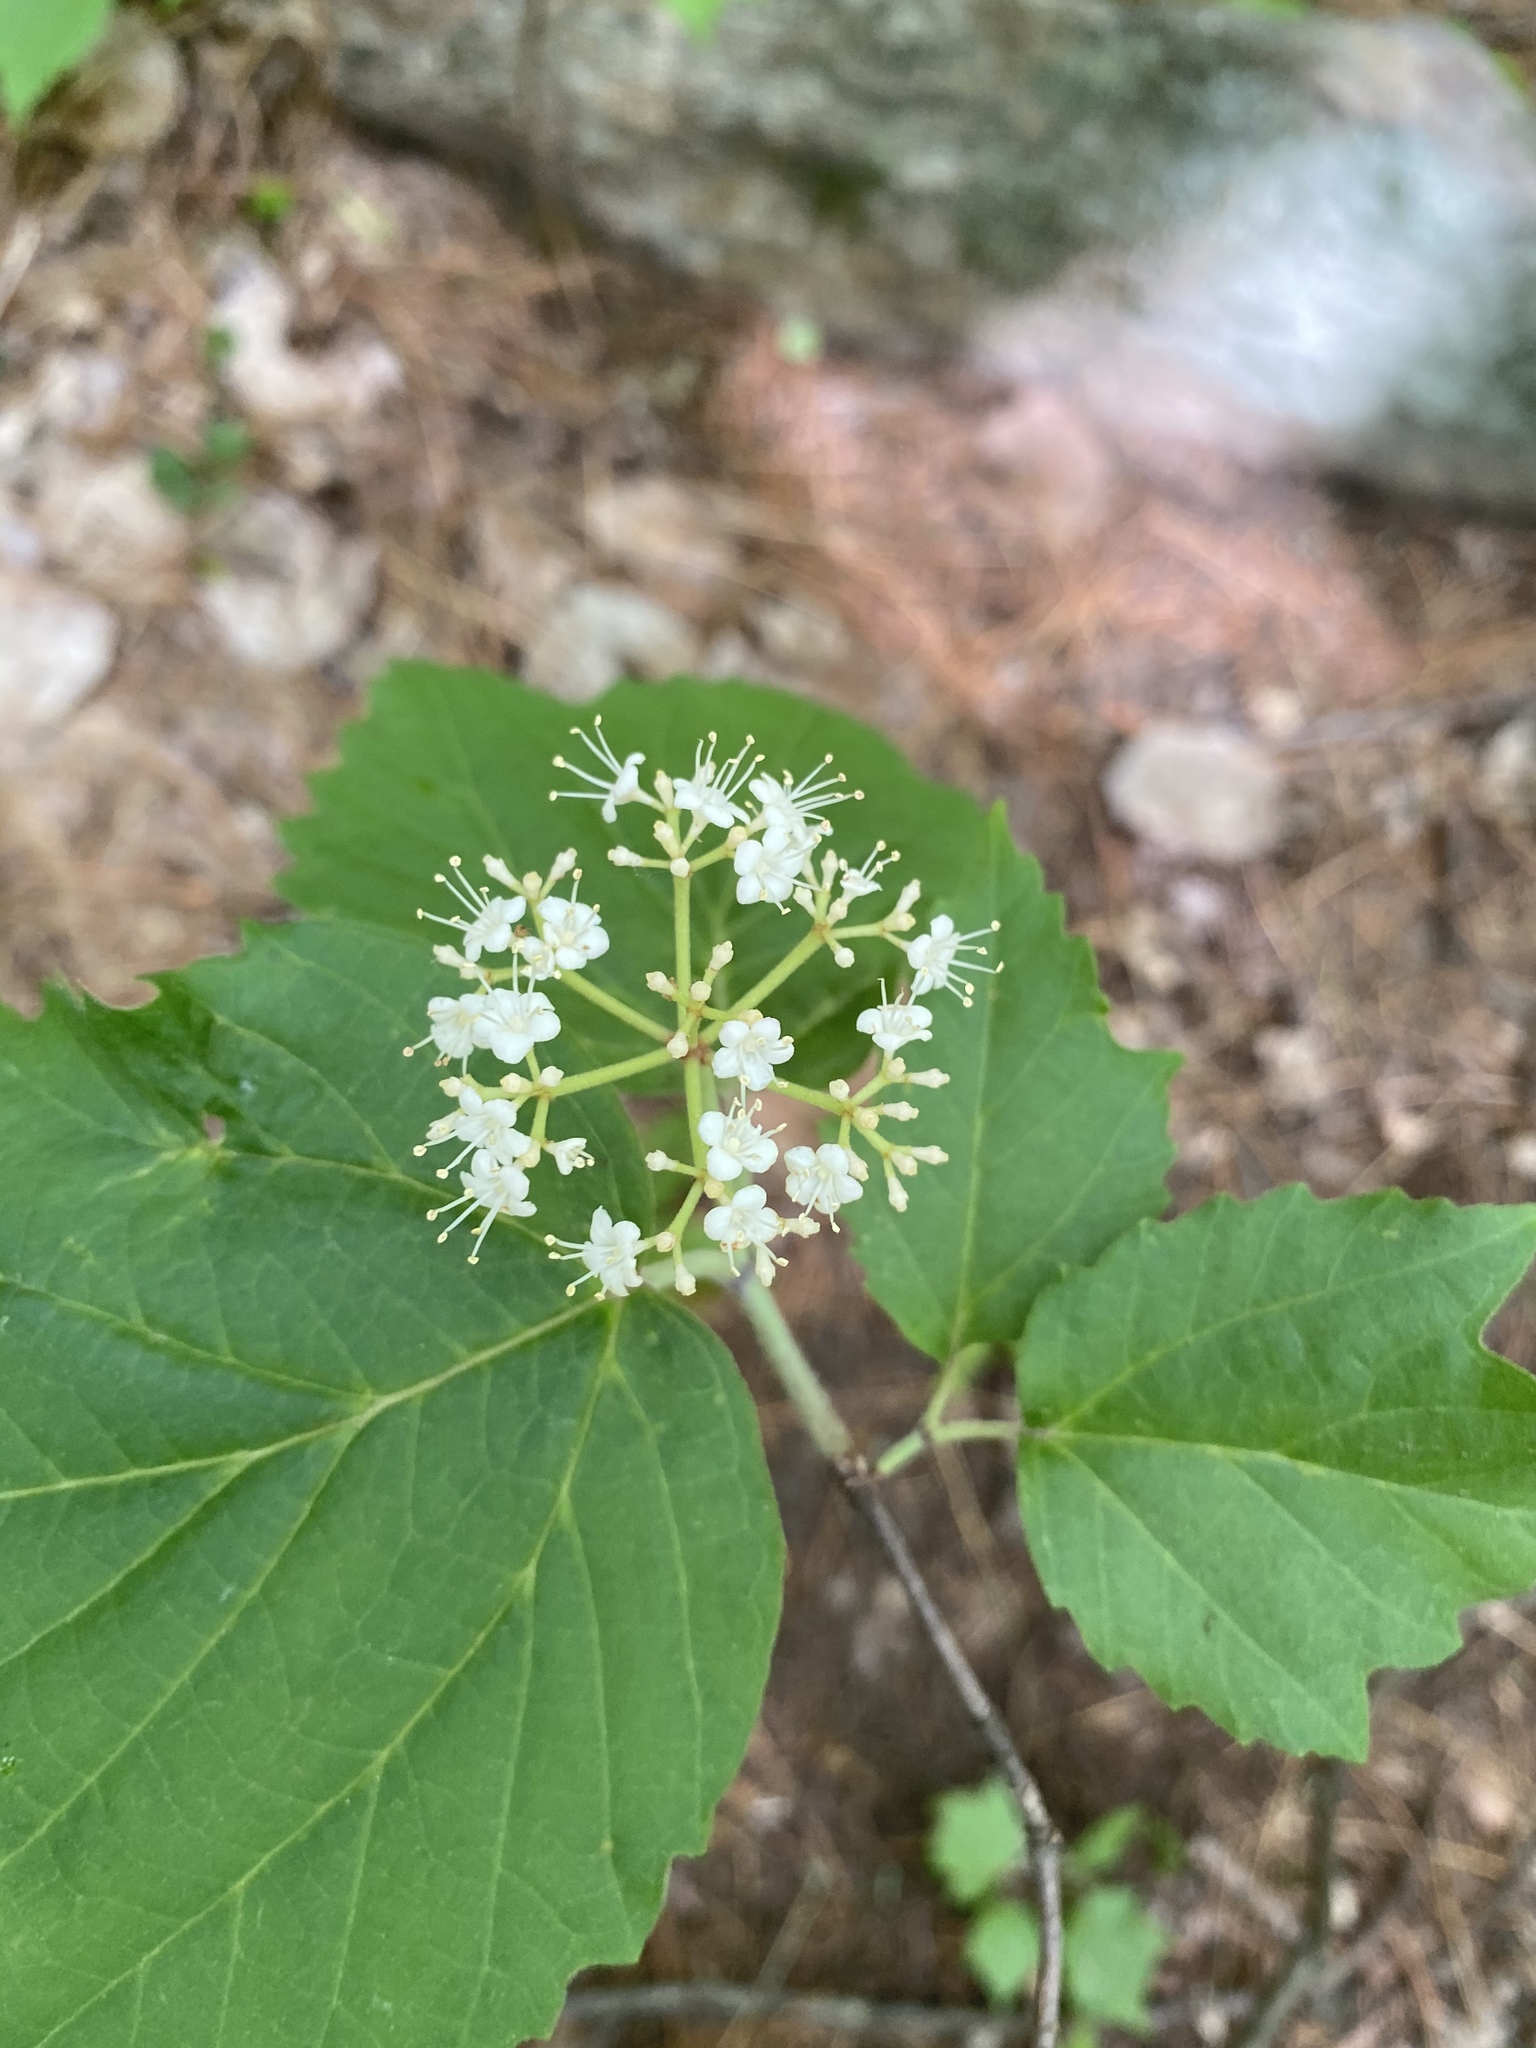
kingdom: Plantae
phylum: Tracheophyta
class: Magnoliopsida
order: Dipsacales
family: Viburnaceae
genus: Viburnum
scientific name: Viburnum acerifolium
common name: Dockmackie
